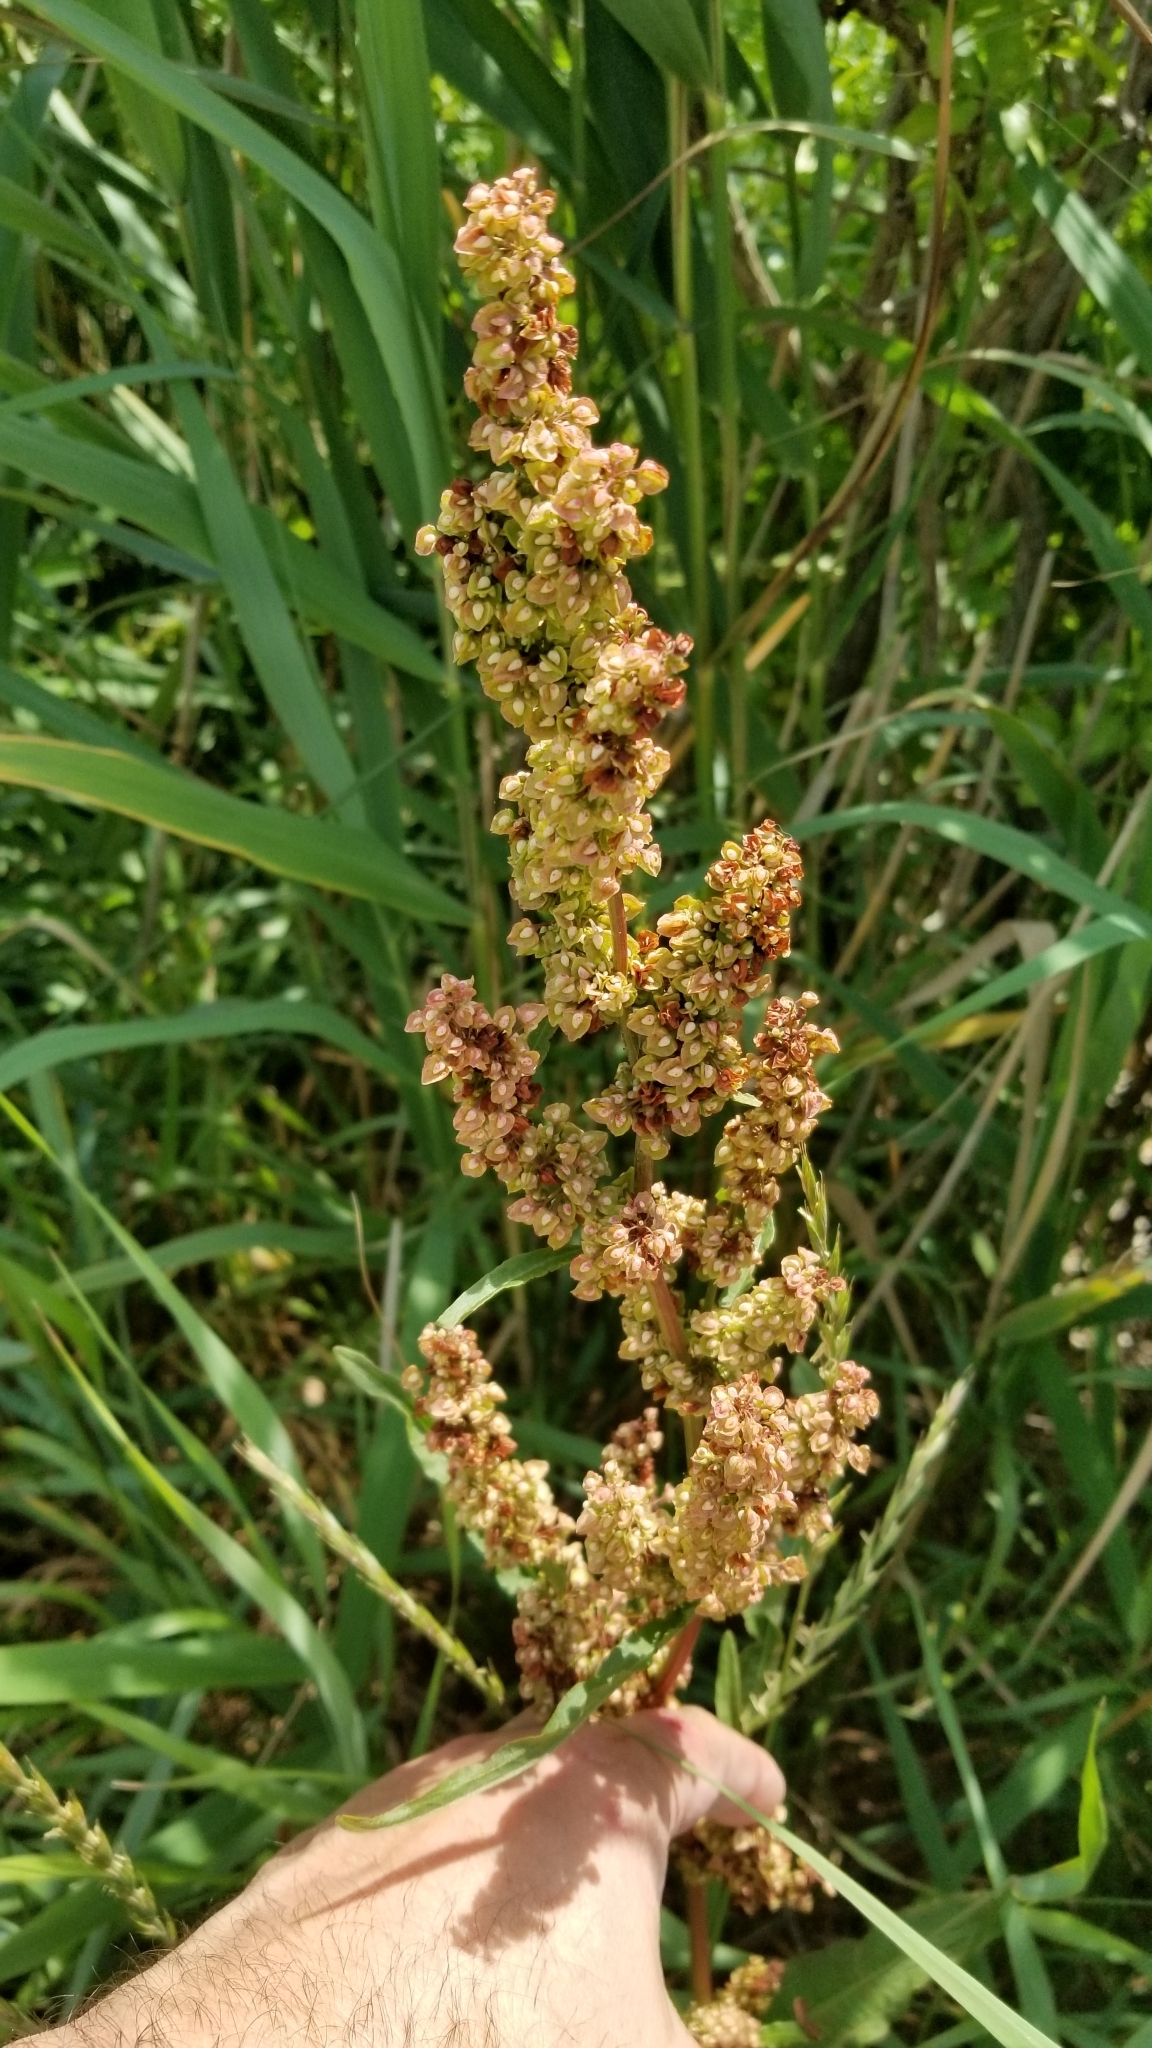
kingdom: Plantae
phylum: Tracheophyta
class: Magnoliopsida
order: Caryophyllales
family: Polygonaceae
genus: Rumex
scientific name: Rumex crispus
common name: Curled dock
